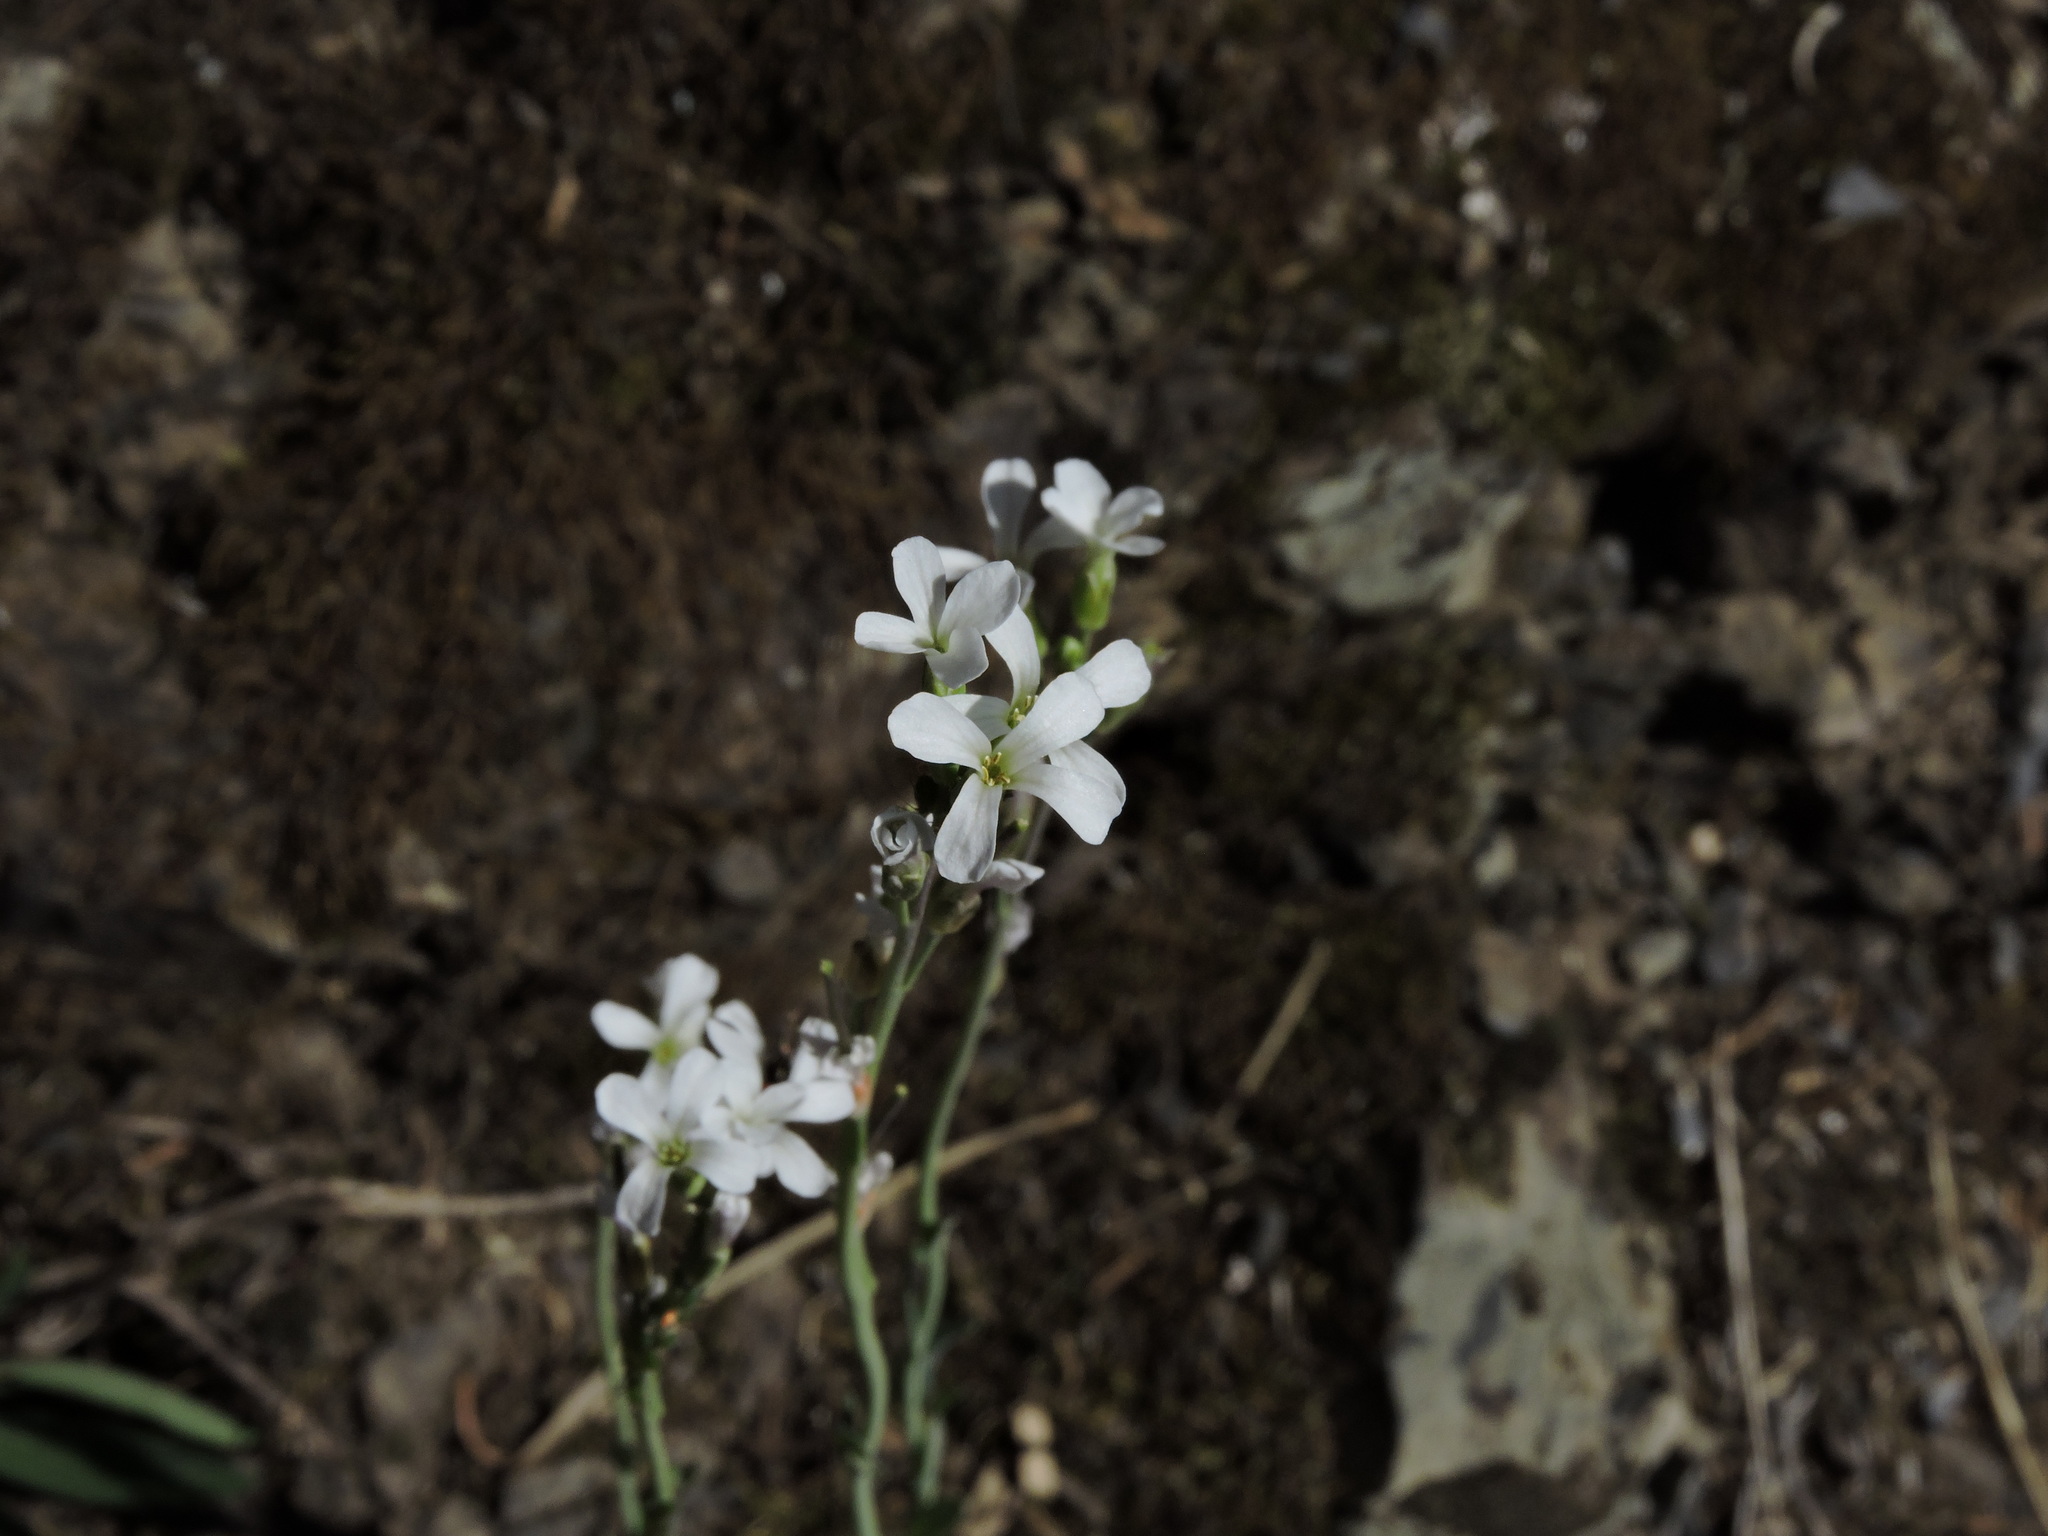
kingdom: Plantae
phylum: Tracheophyta
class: Magnoliopsida
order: Brassicales
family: Brassicaceae
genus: Turritis
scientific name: Turritis glabra
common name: Tower rockcress
